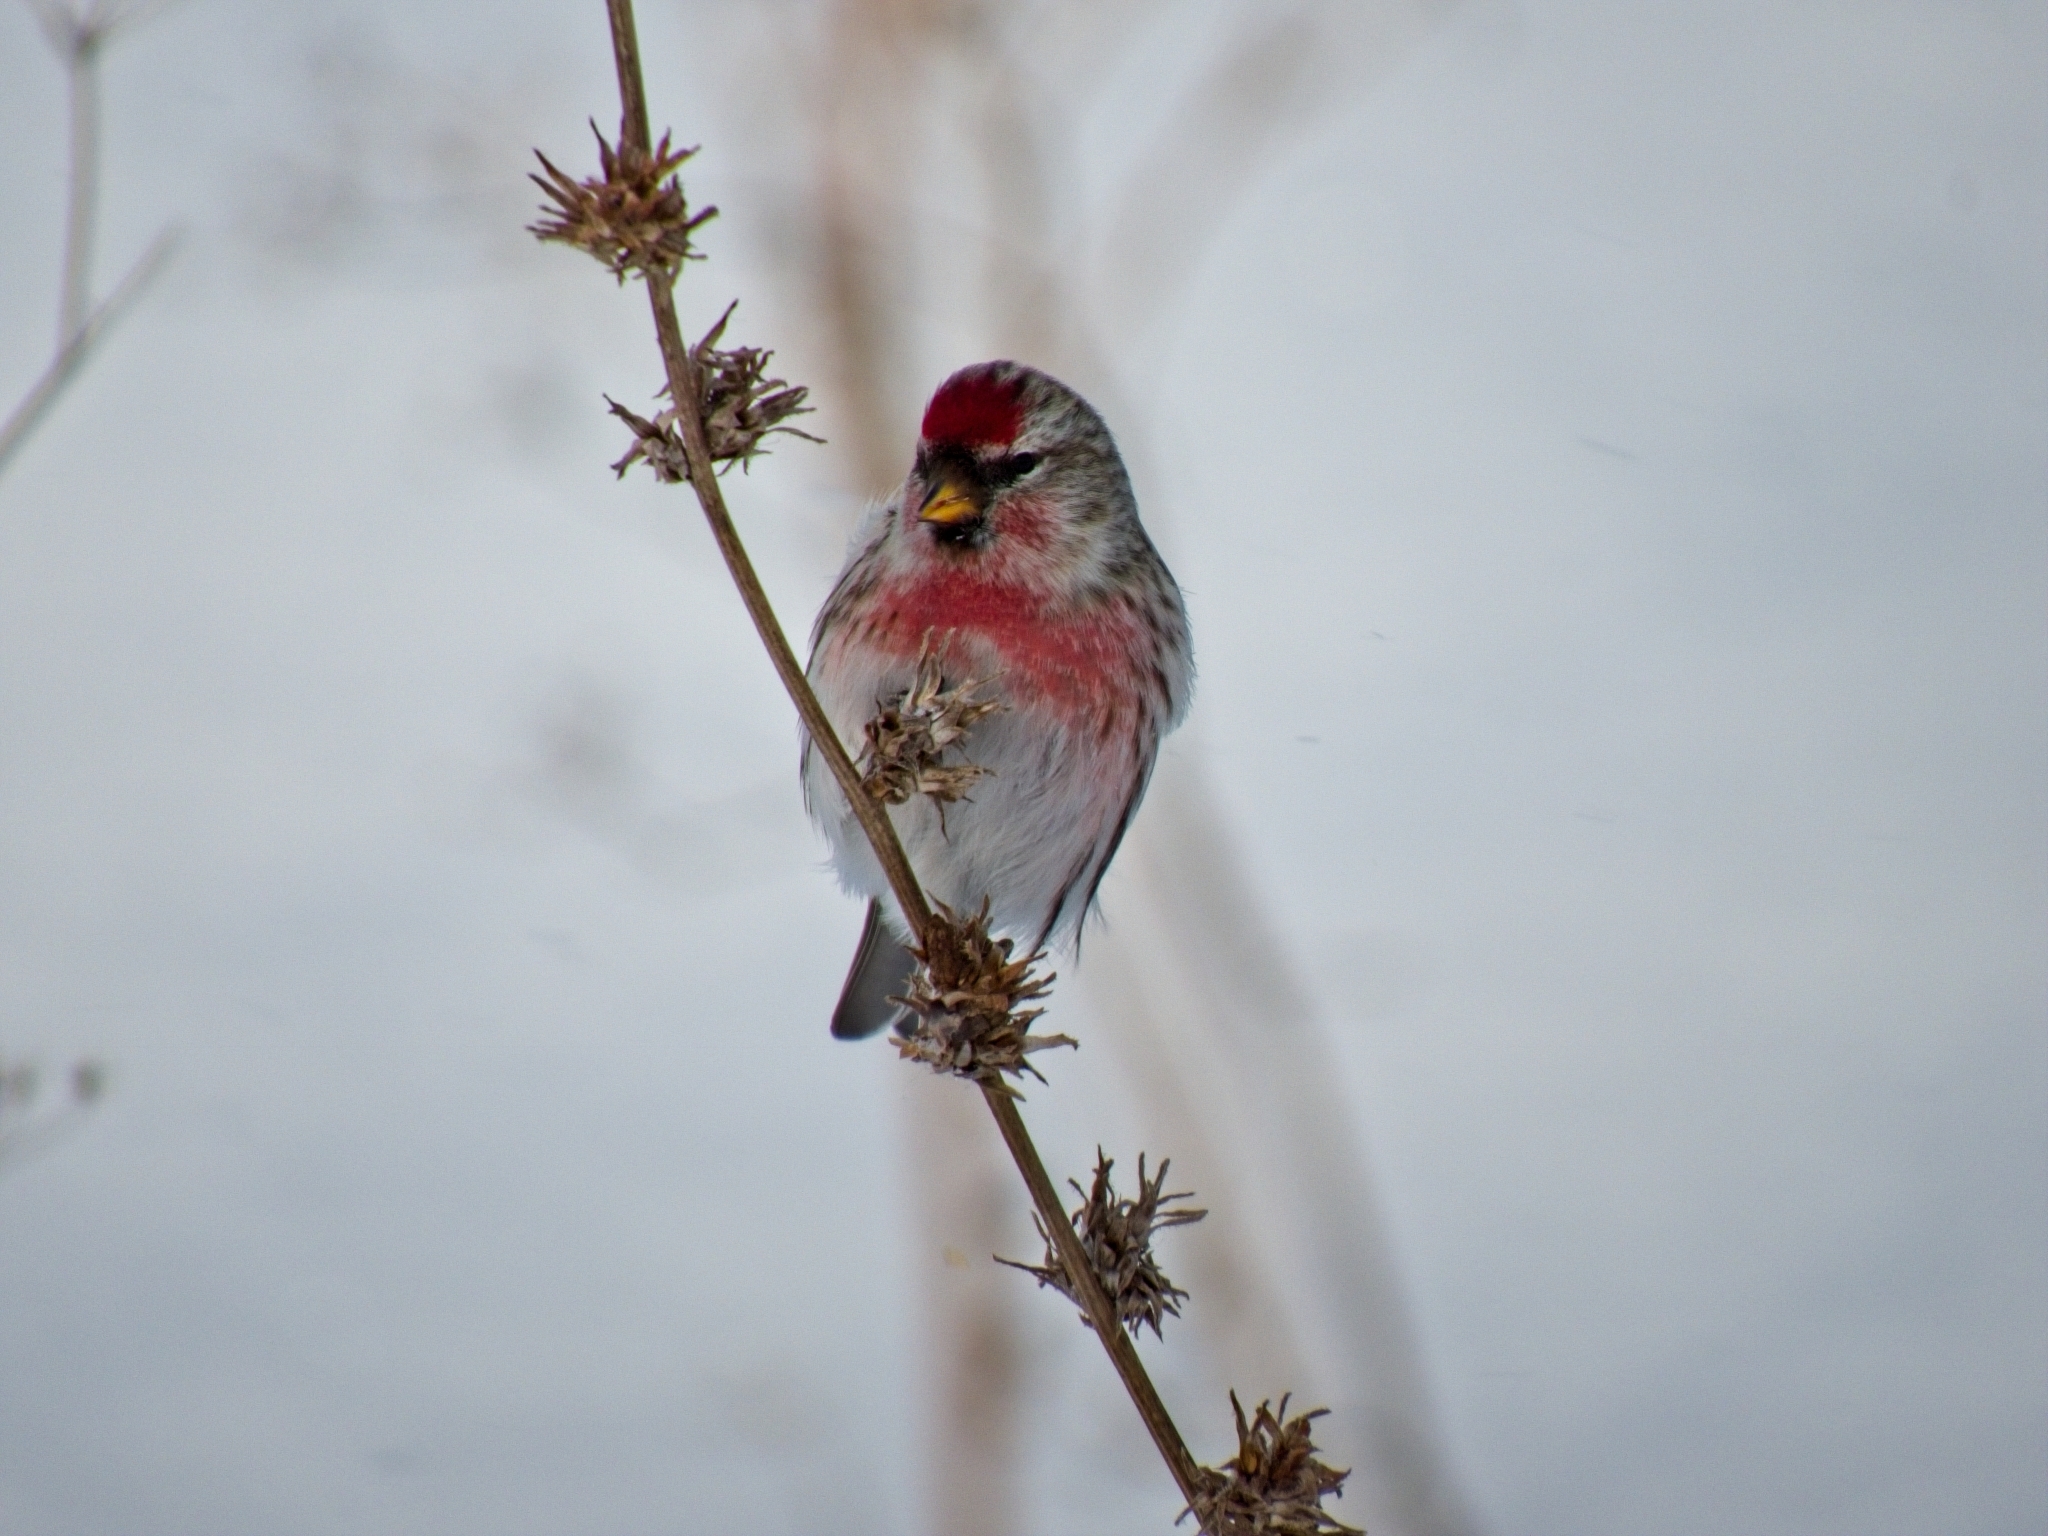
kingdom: Animalia
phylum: Chordata
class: Aves
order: Passeriformes
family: Fringillidae
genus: Acanthis
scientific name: Acanthis flammea
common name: Common redpoll
